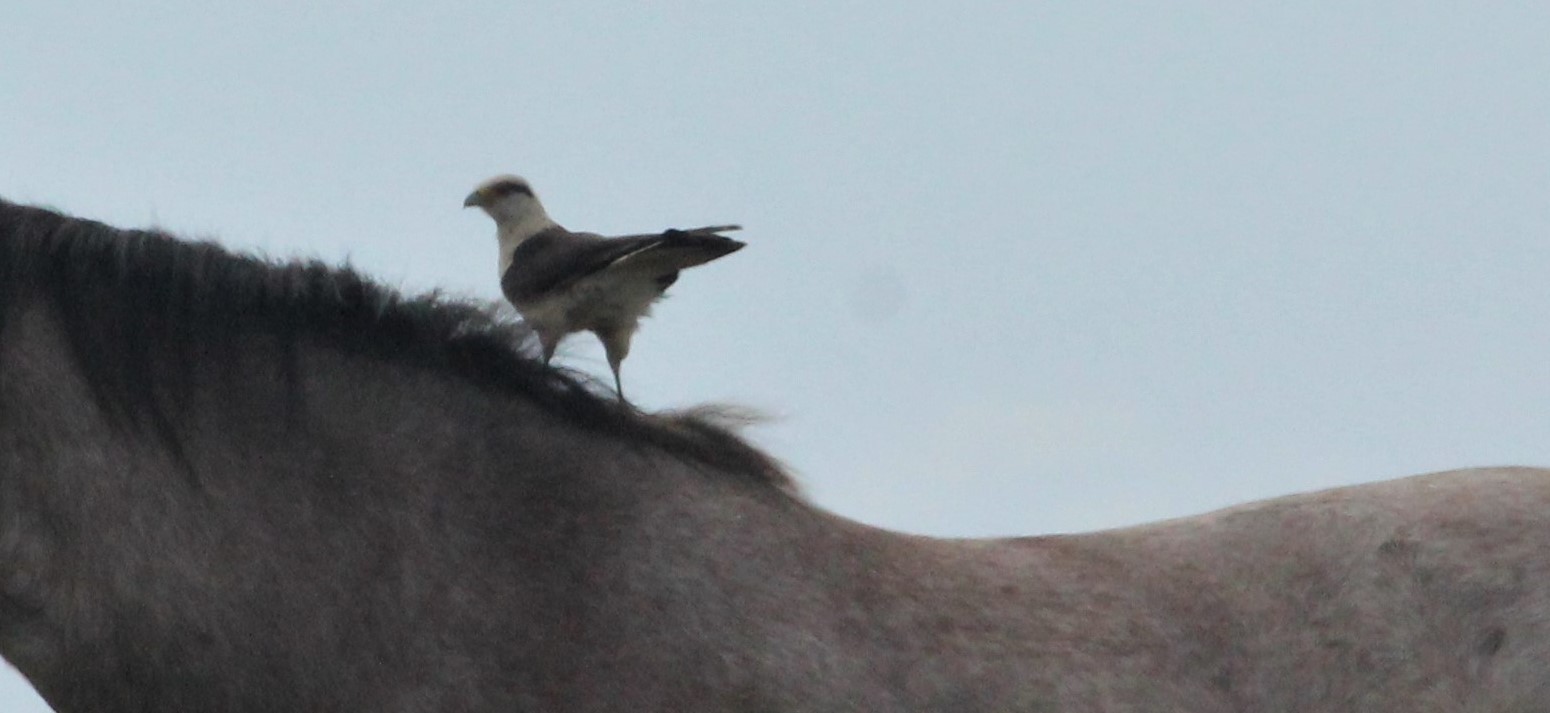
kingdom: Animalia
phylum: Chordata
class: Aves
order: Falconiformes
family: Falconidae
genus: Daptrius
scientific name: Daptrius
